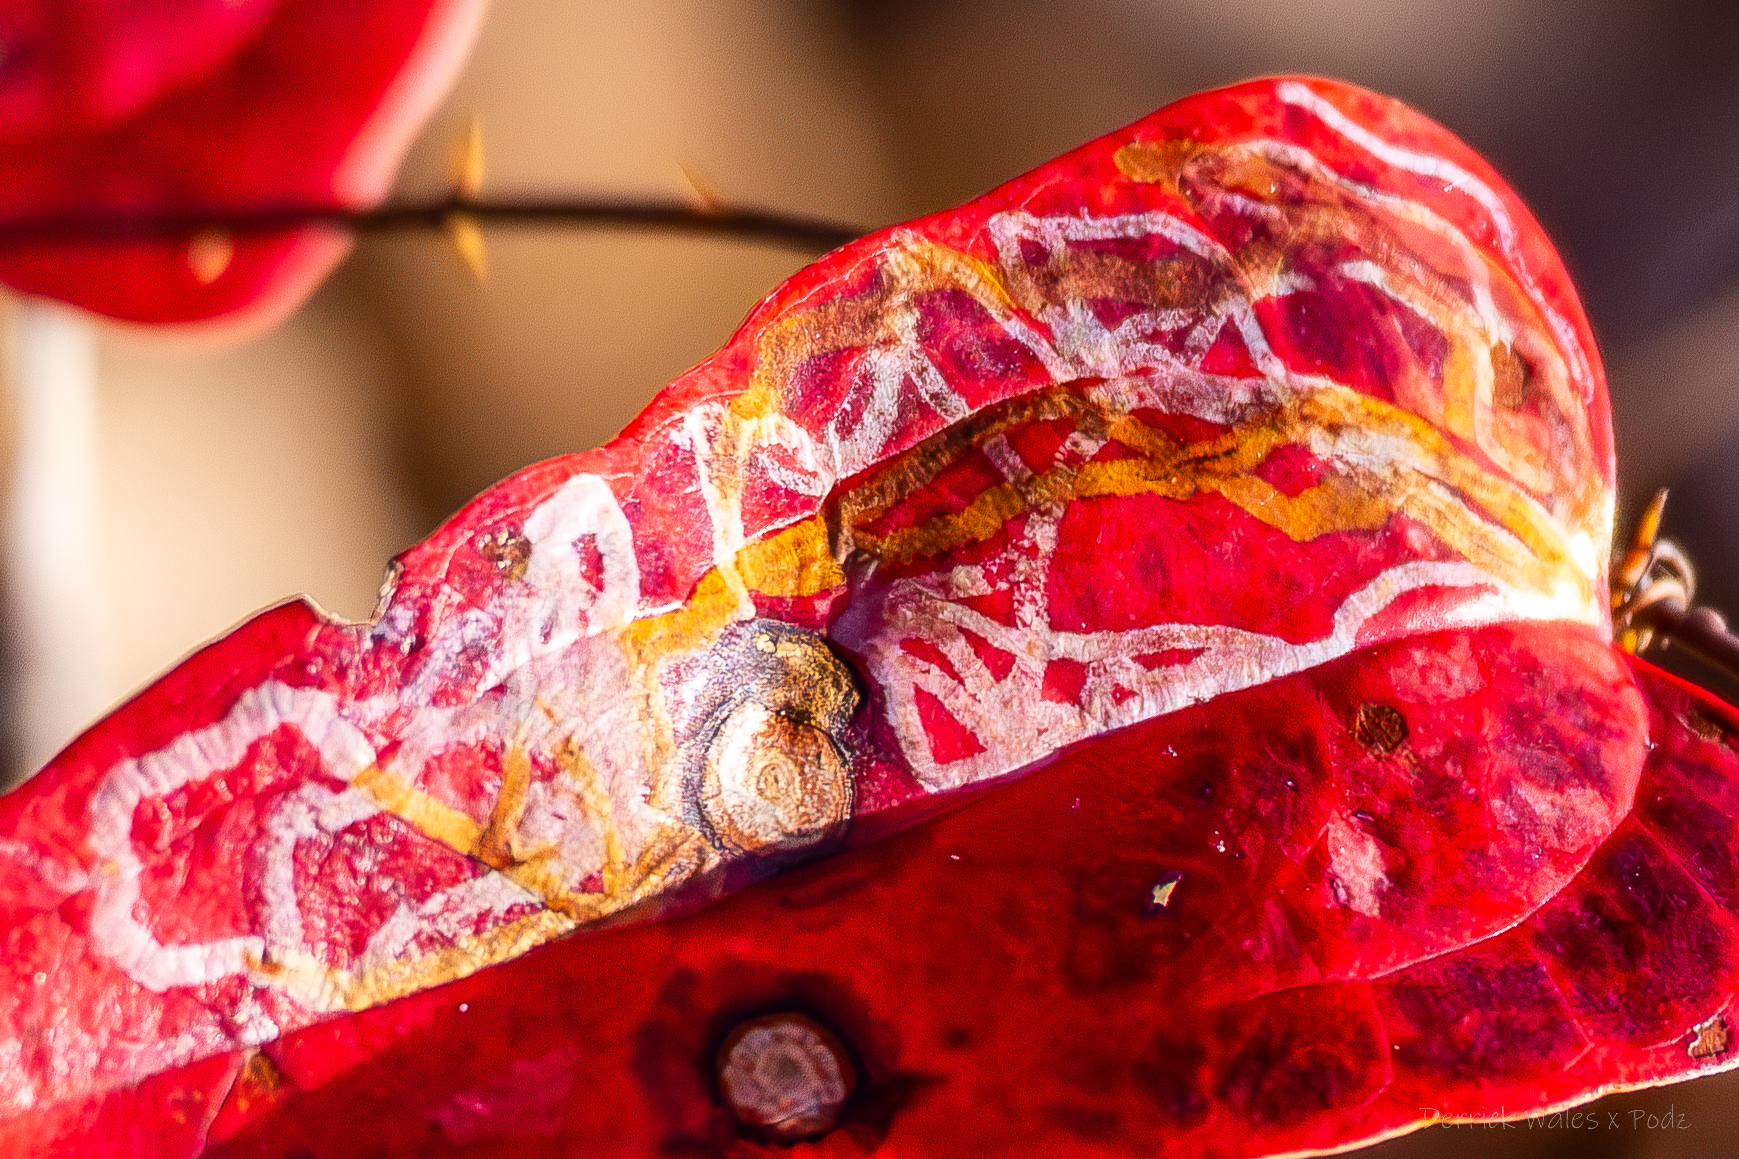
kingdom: Animalia
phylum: Arthropoda
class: Insecta
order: Lepidoptera
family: Gracillariidae
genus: Marmara
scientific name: Marmara smilacisella
